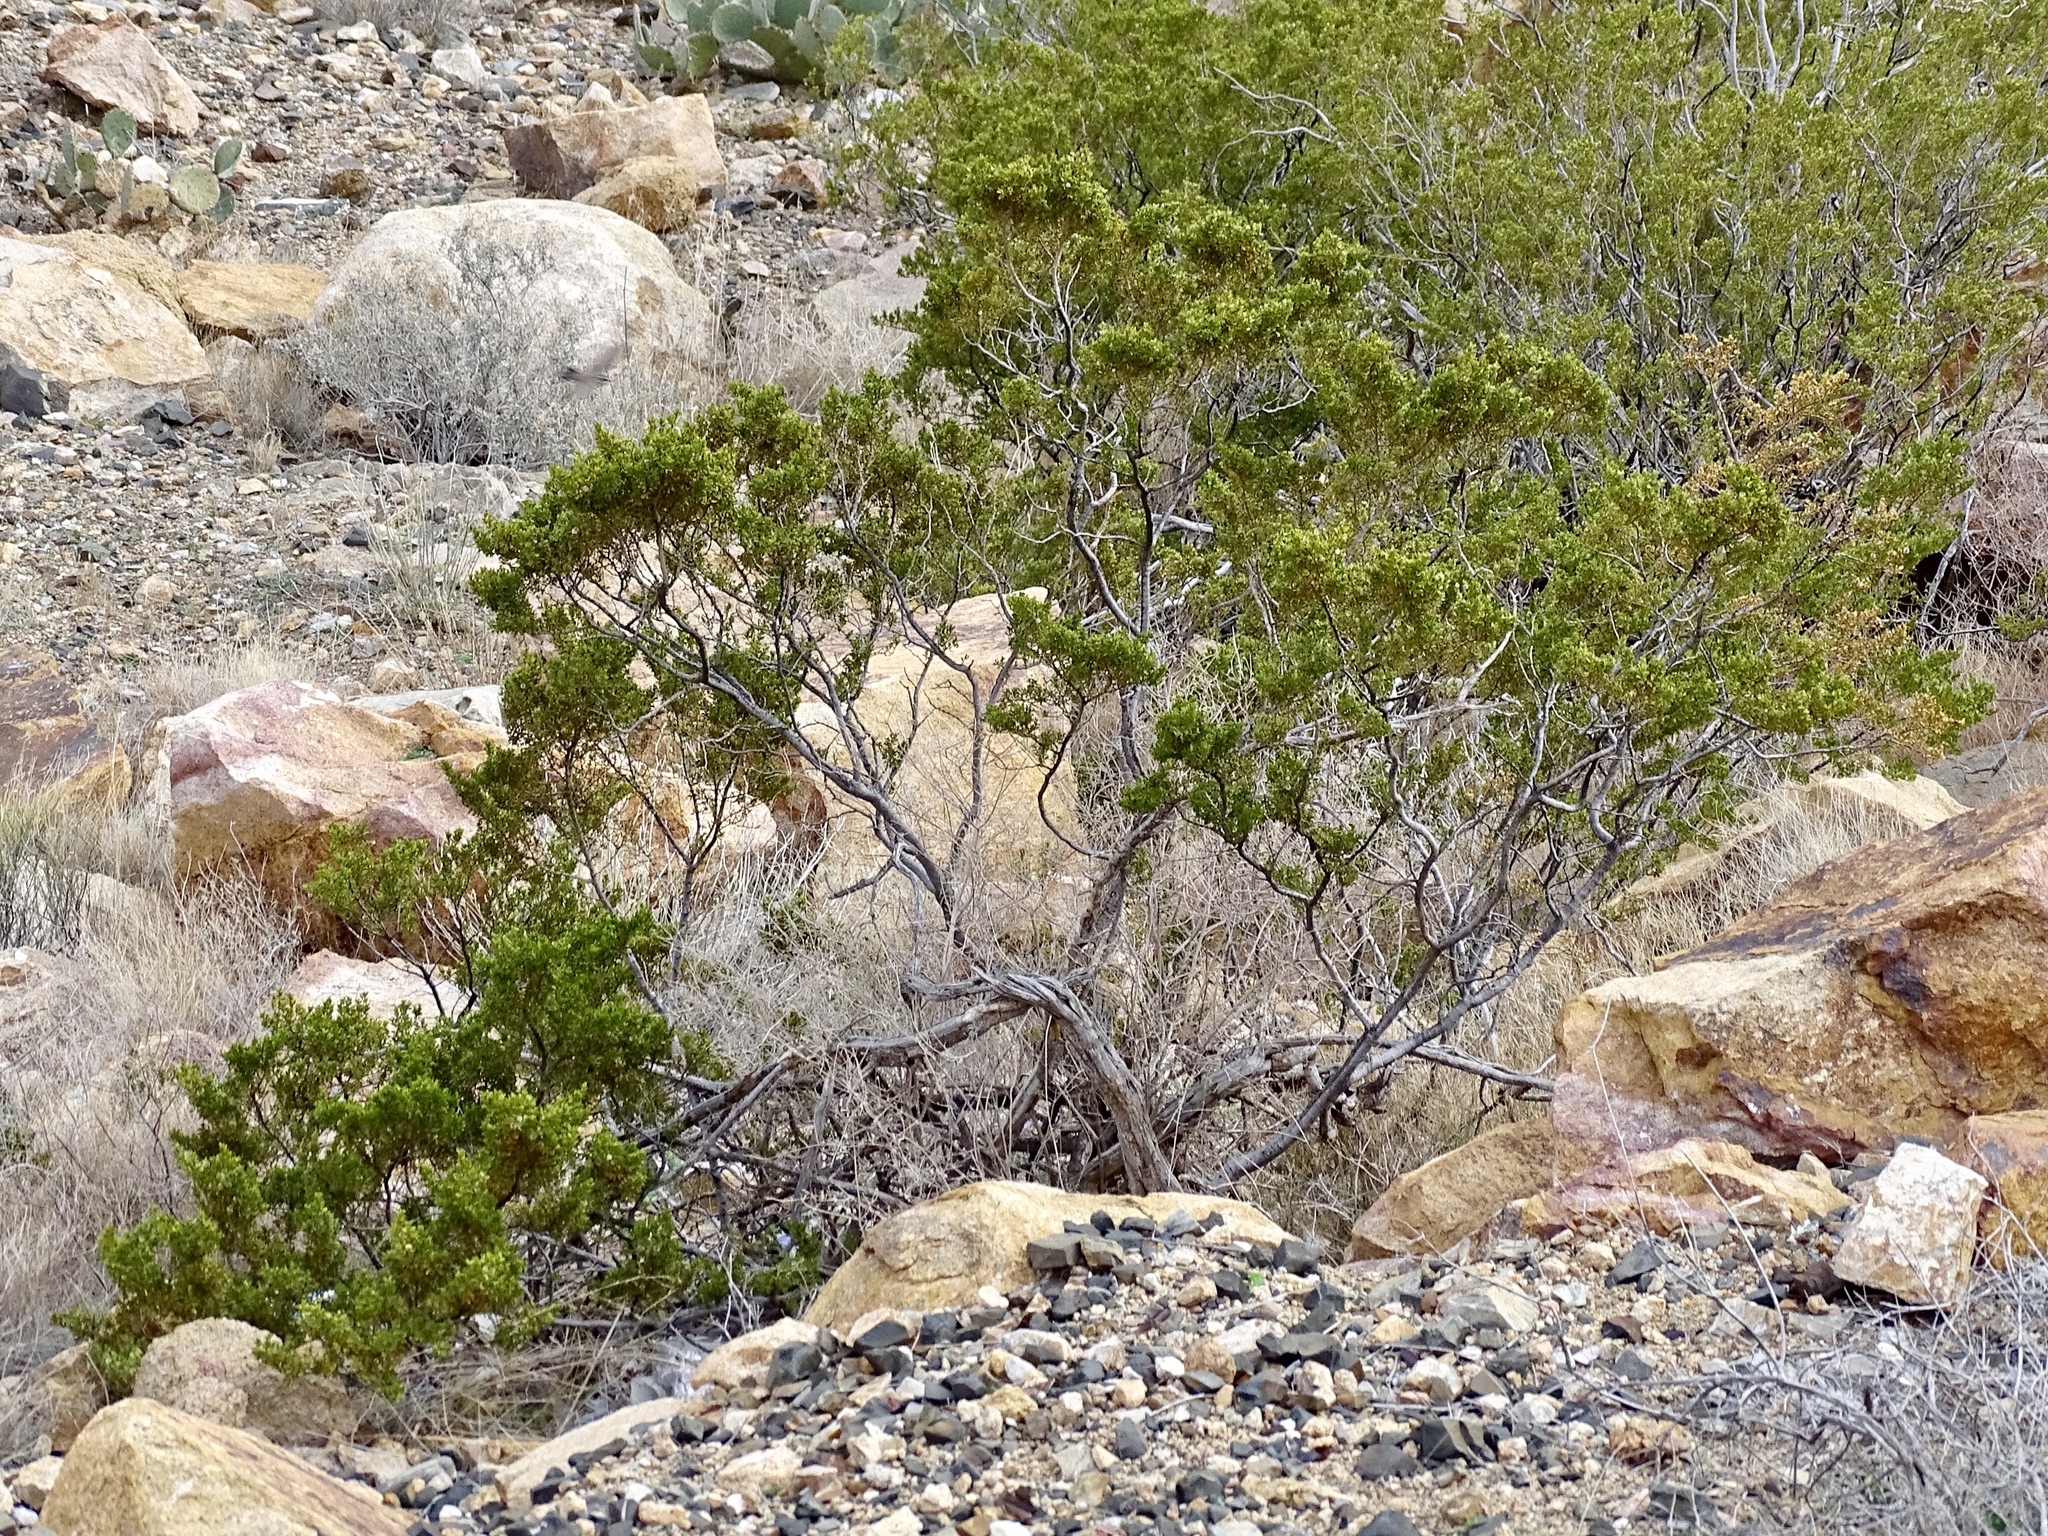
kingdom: Plantae
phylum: Tracheophyta
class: Magnoliopsida
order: Zygophyllales
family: Zygophyllaceae
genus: Larrea
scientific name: Larrea tridentata
